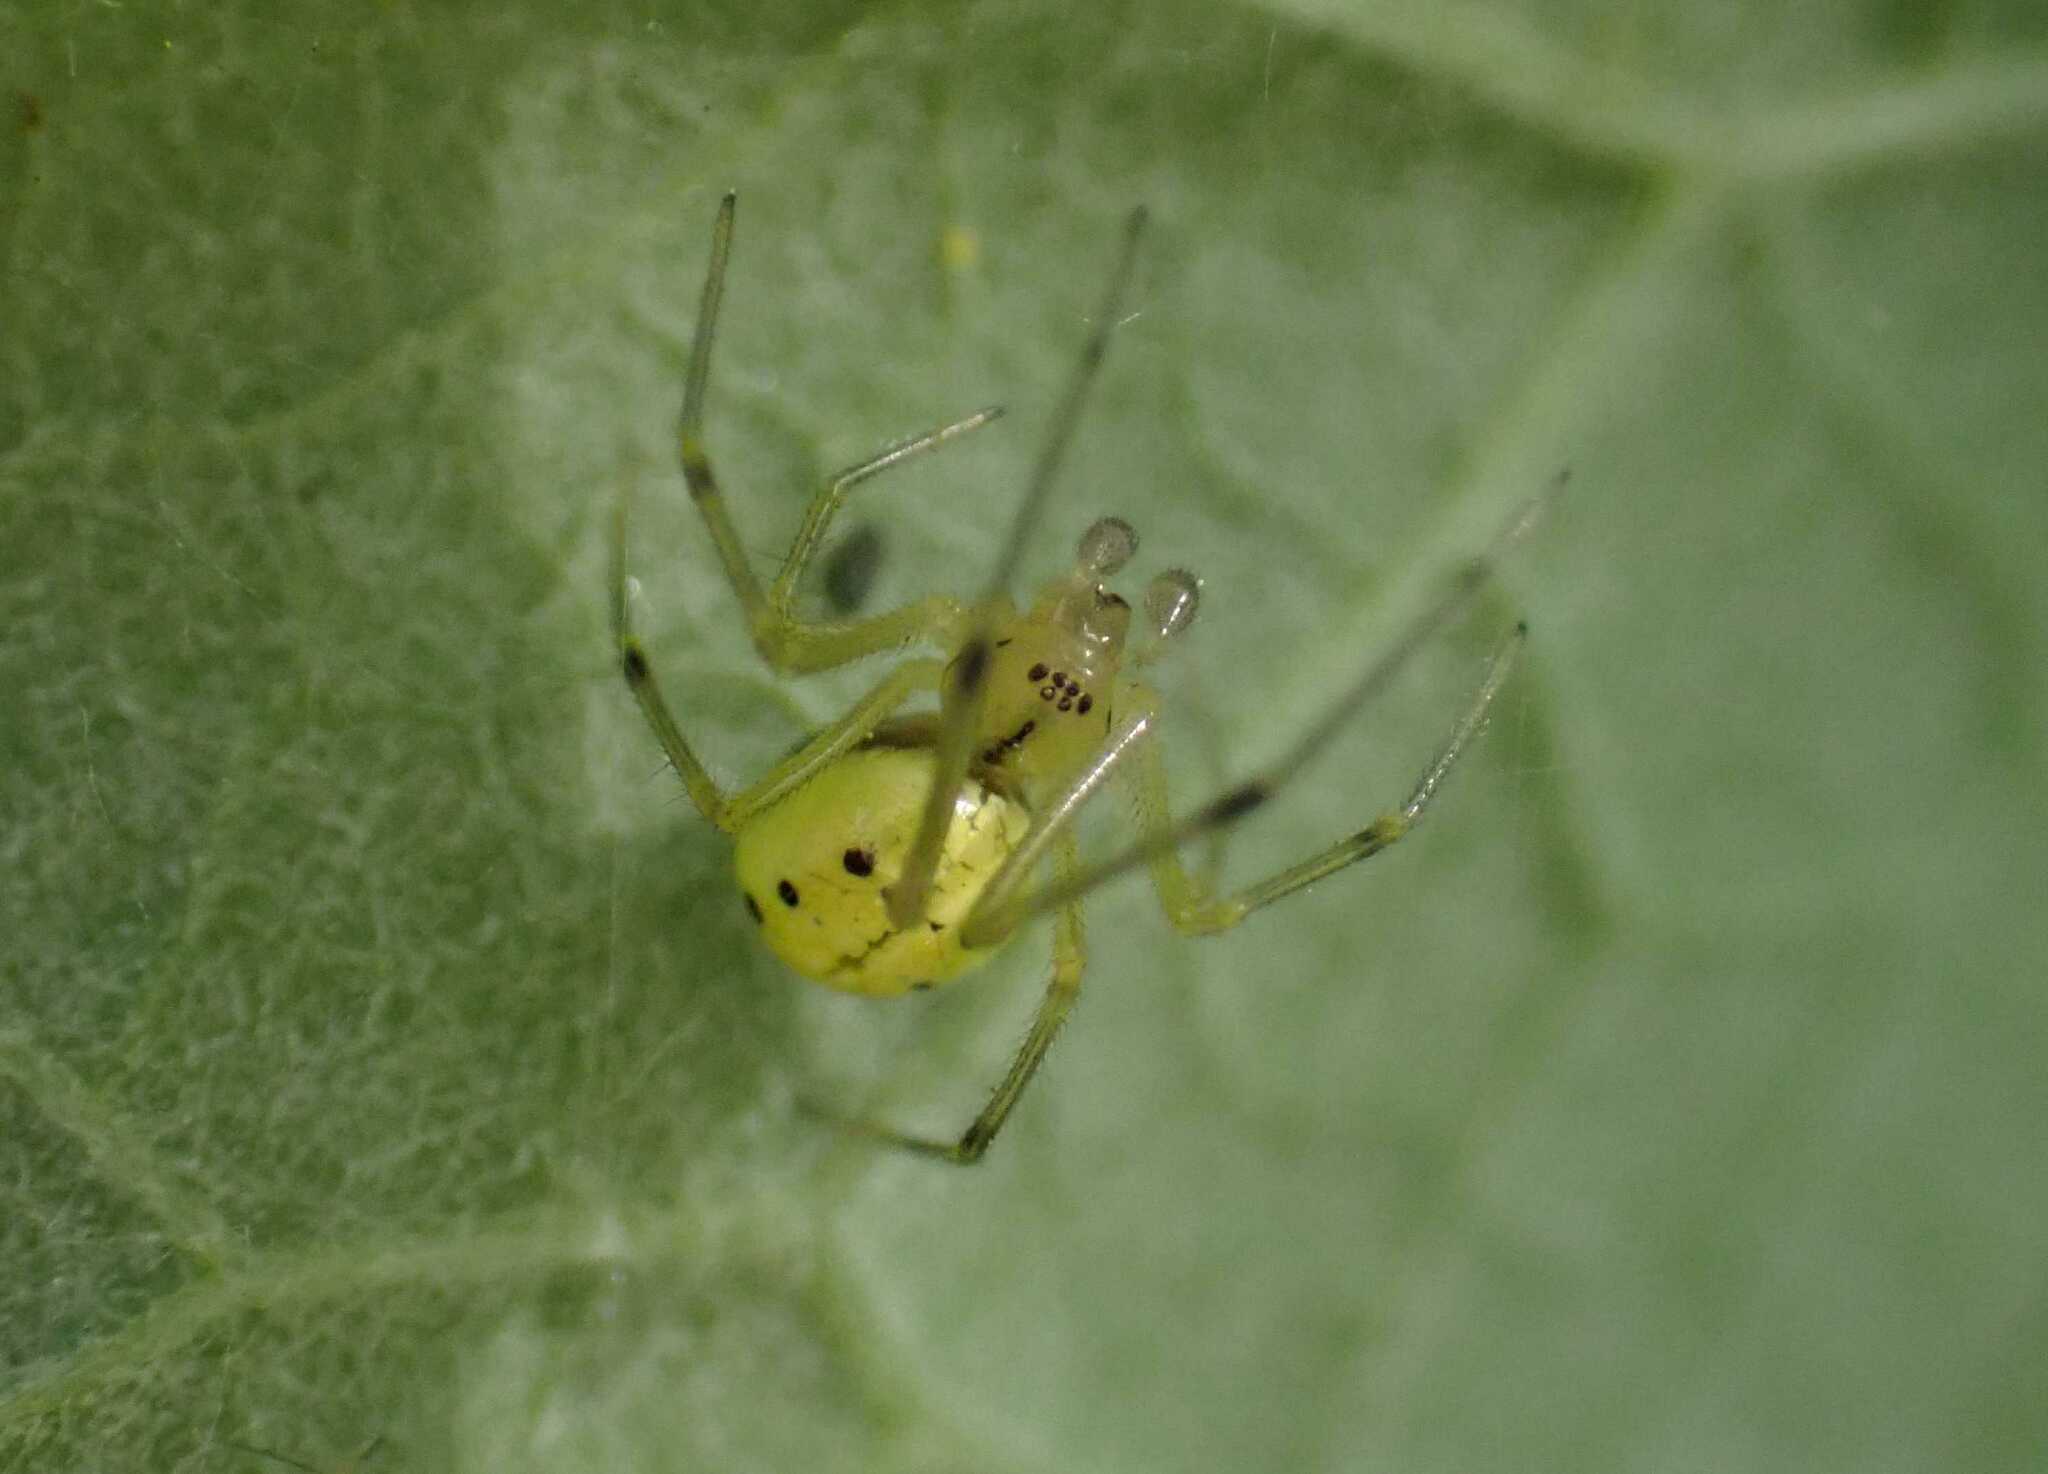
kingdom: Animalia
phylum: Arthropoda
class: Arachnida
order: Araneae
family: Theridiidae
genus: Enoplognatha
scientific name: Enoplognatha
